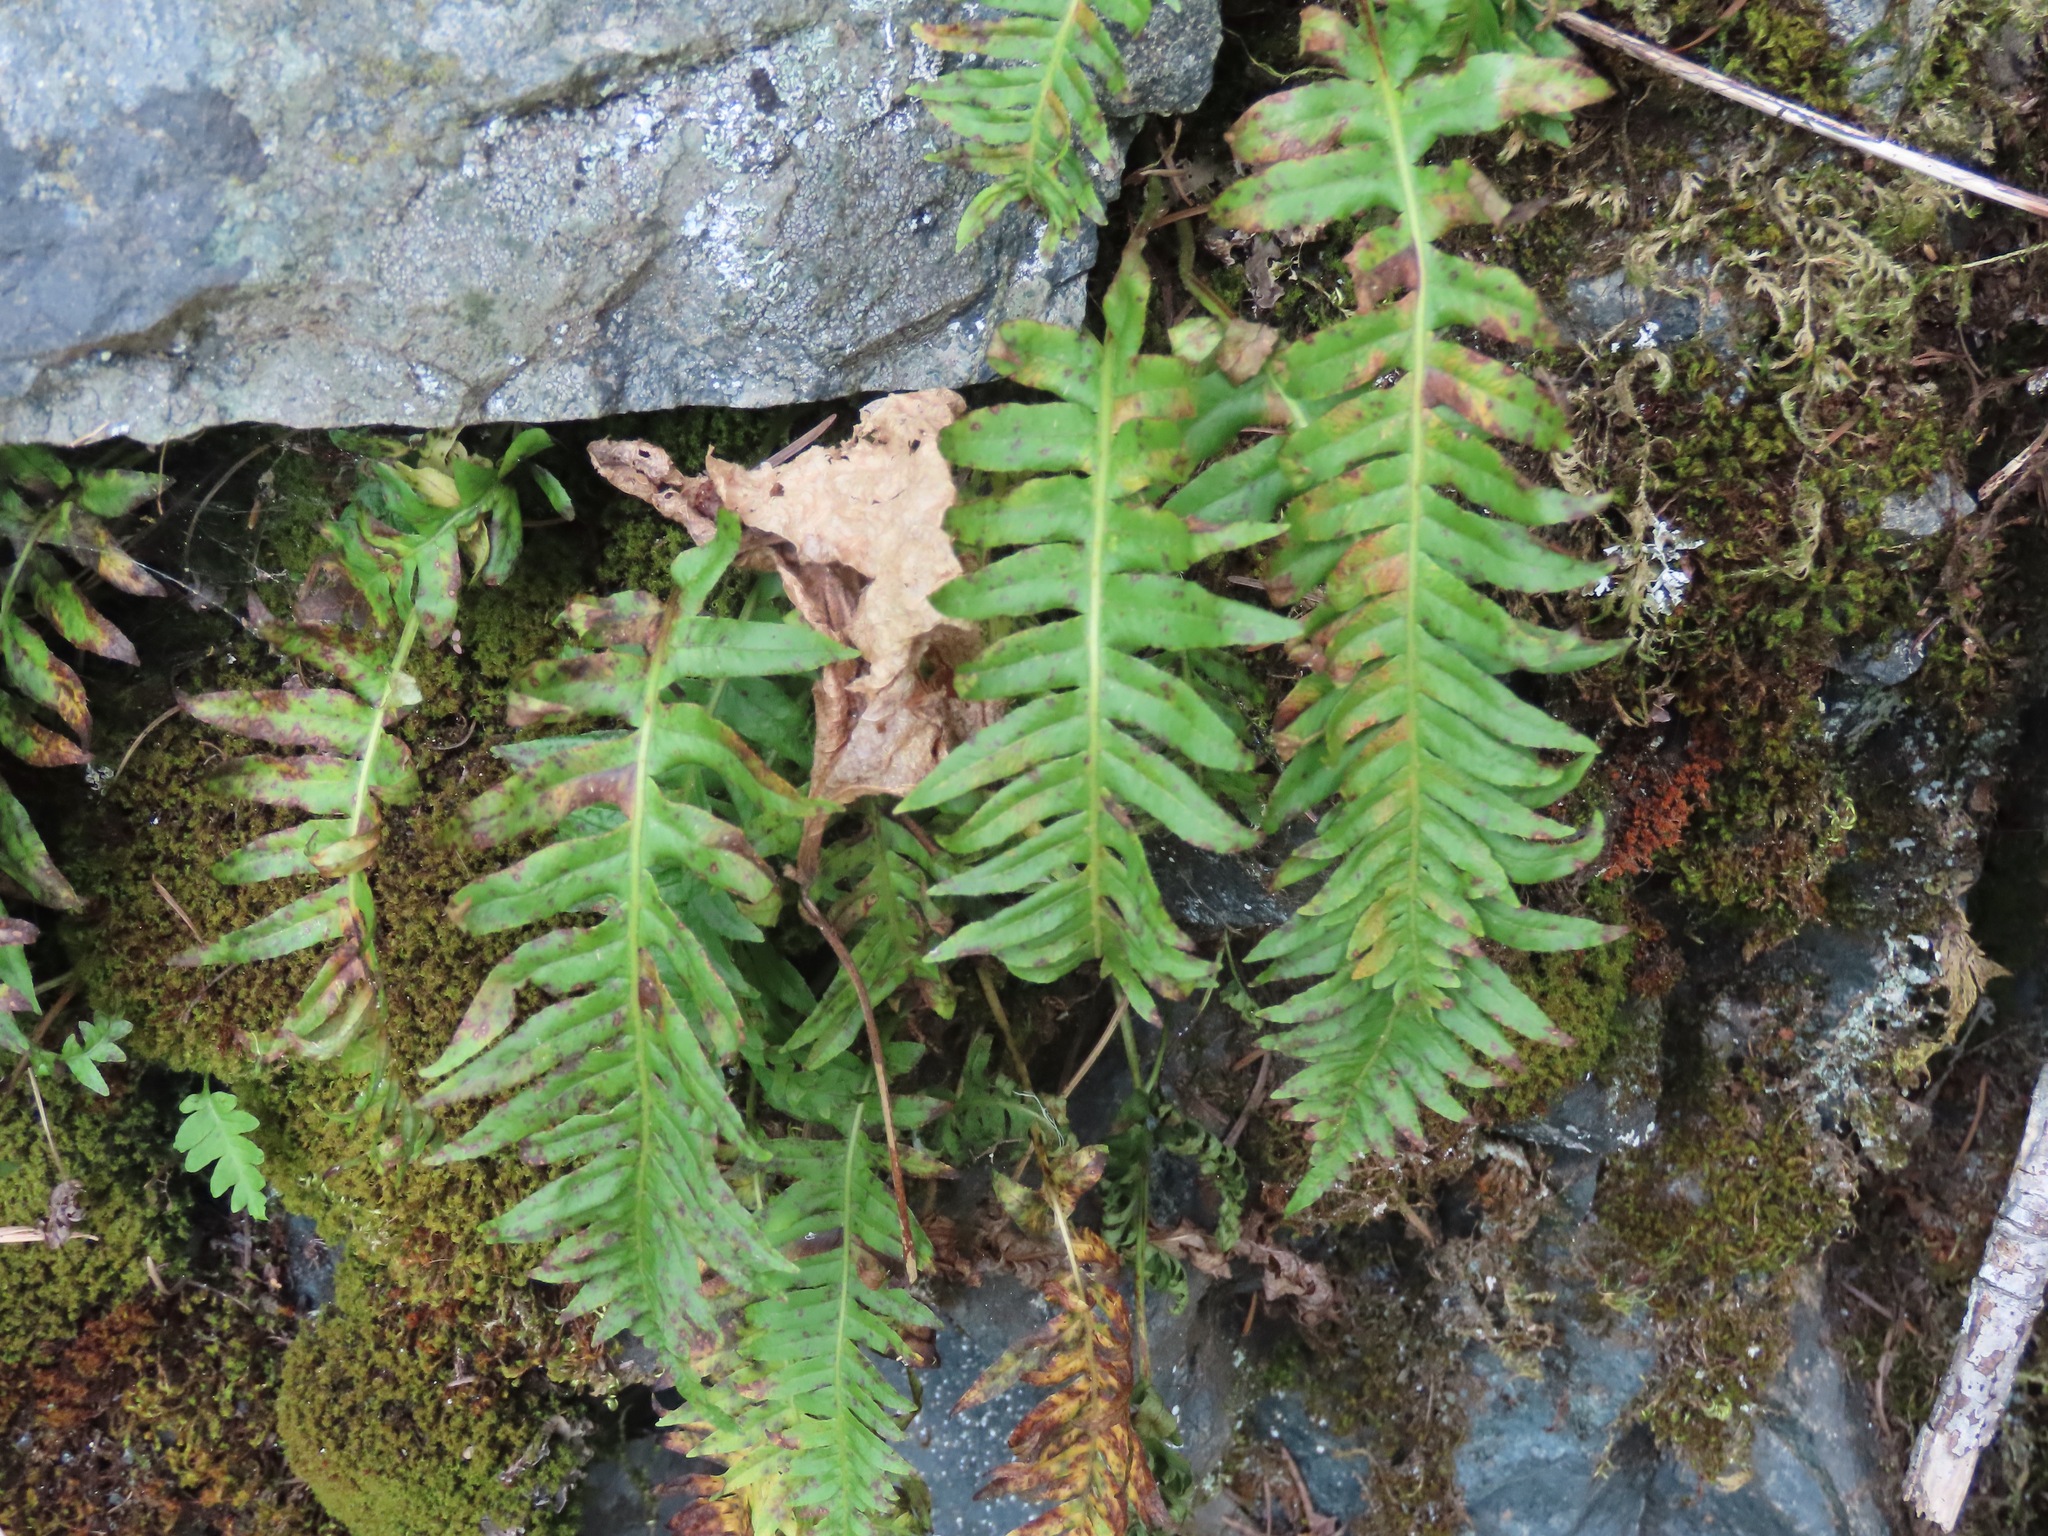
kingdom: Plantae
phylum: Tracheophyta
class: Polypodiopsida
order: Polypodiales
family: Polypodiaceae
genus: Polypodium
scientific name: Polypodium glycyrrhiza
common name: Licorice fern
